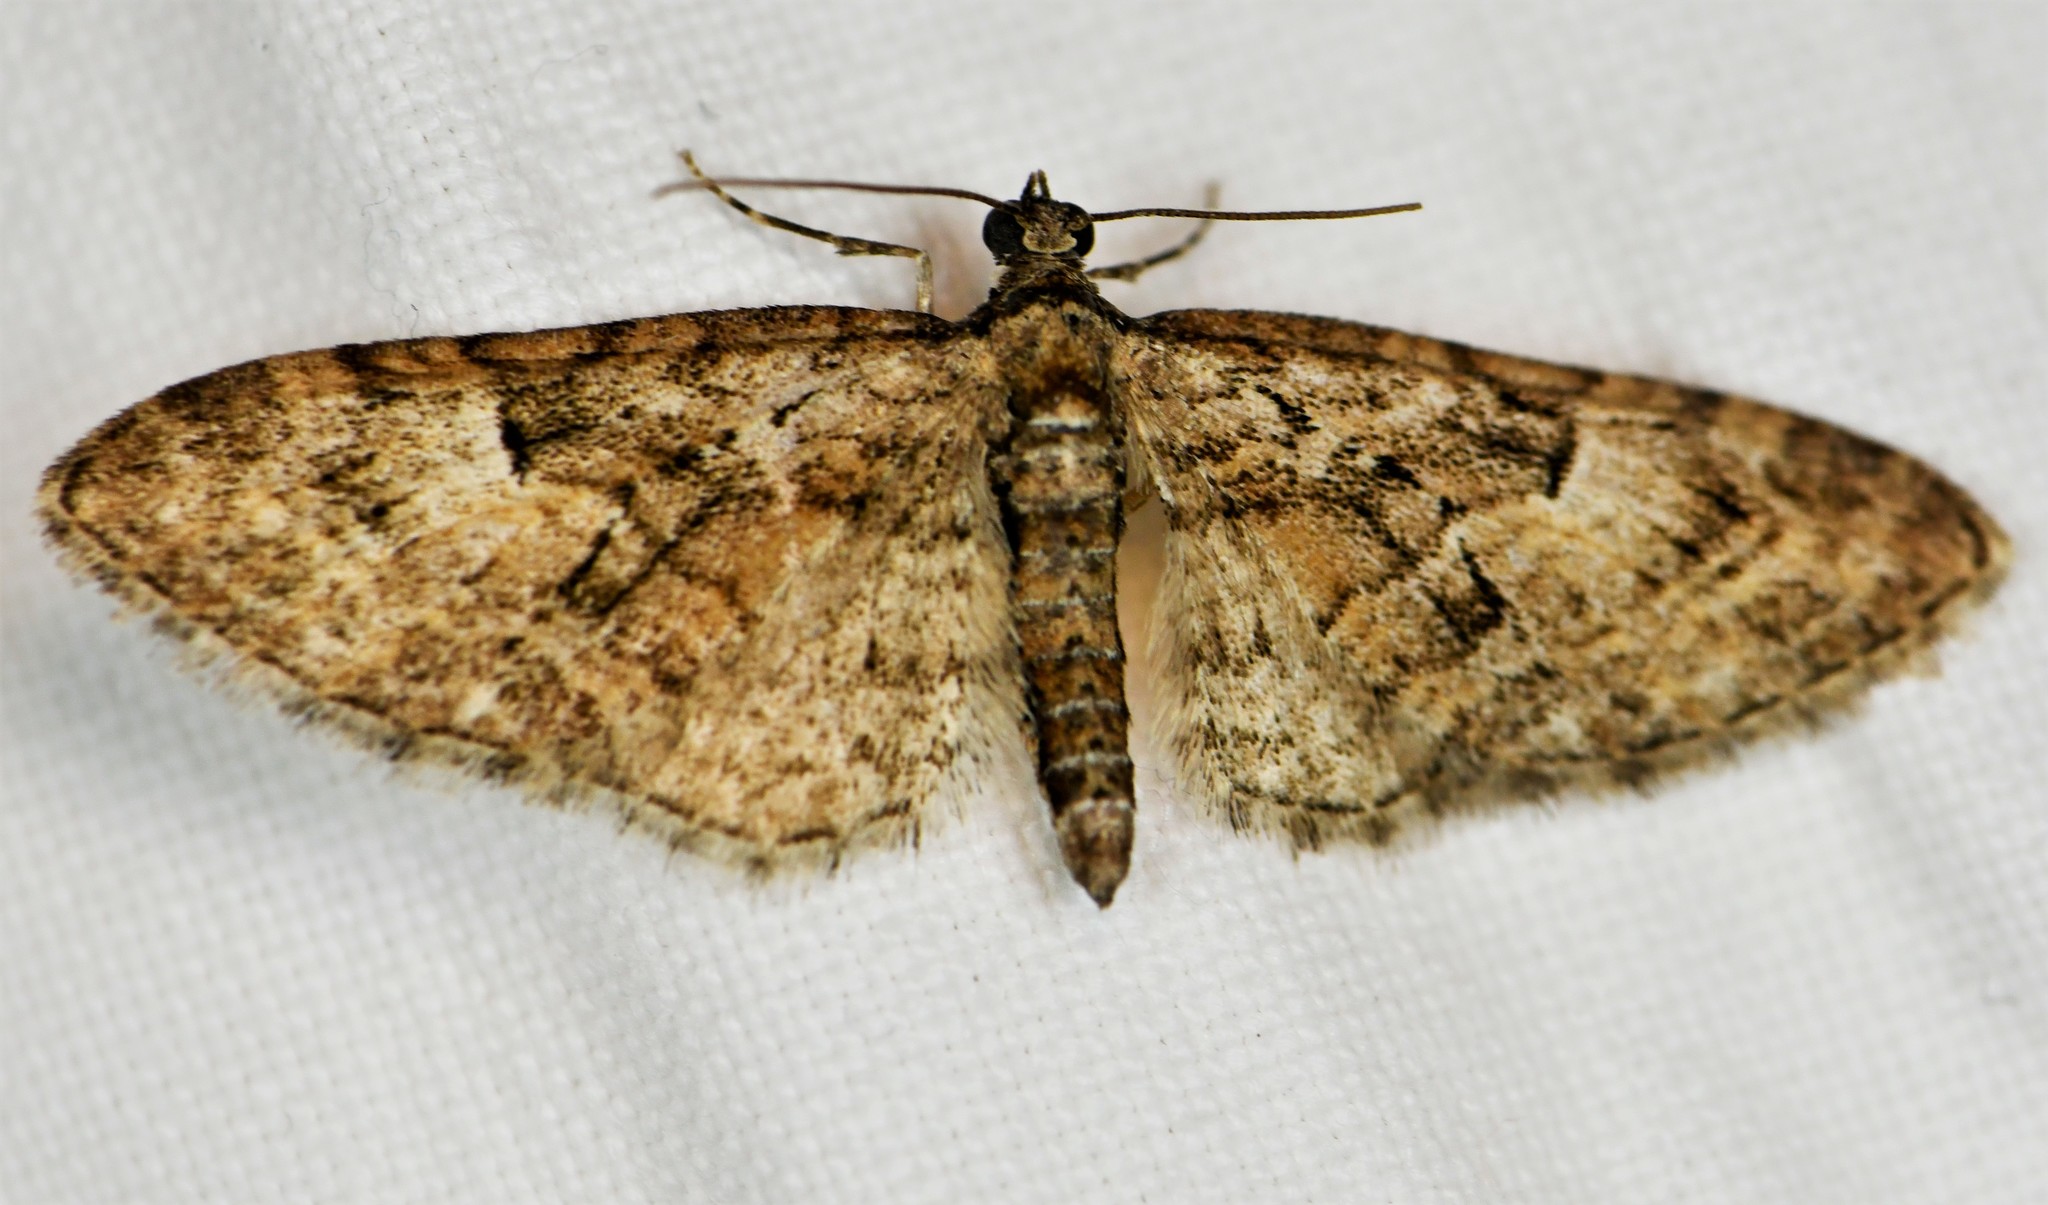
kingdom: Animalia
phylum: Arthropoda
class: Insecta
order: Lepidoptera
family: Geometridae
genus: Eupithecia
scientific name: Eupithecia abbreviata
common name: Brindled pug
